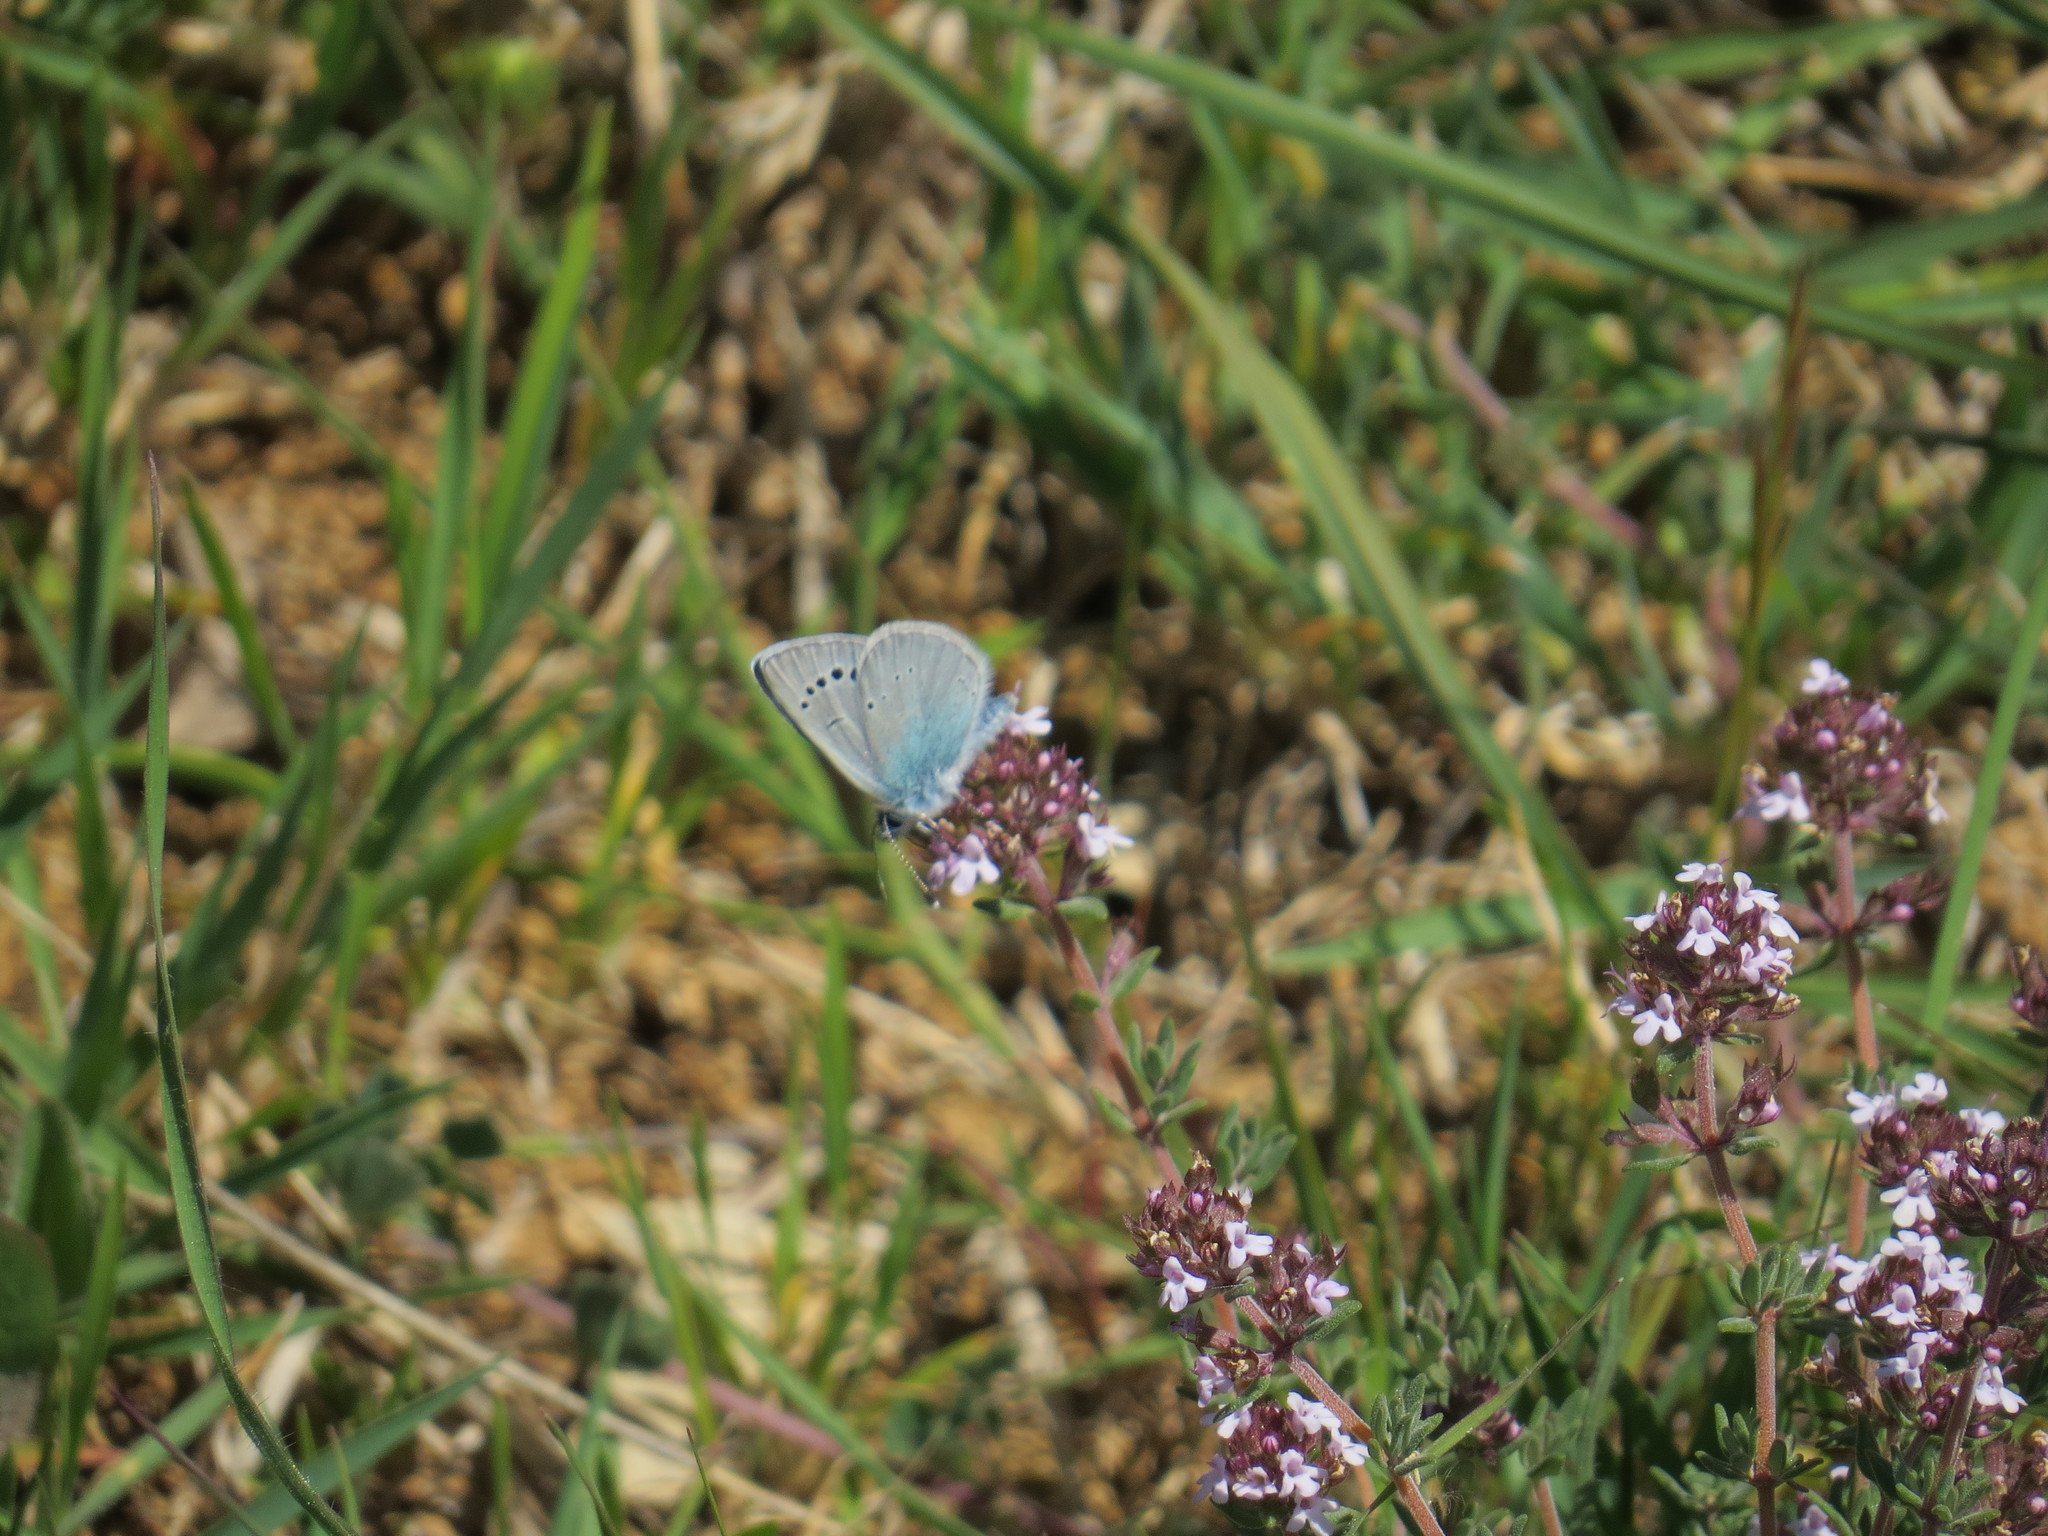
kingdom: Animalia
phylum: Arthropoda
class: Insecta
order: Lepidoptera
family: Lycaenidae
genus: Glaucopsyche
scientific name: Glaucopsyche alexis
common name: Green-underside blue
